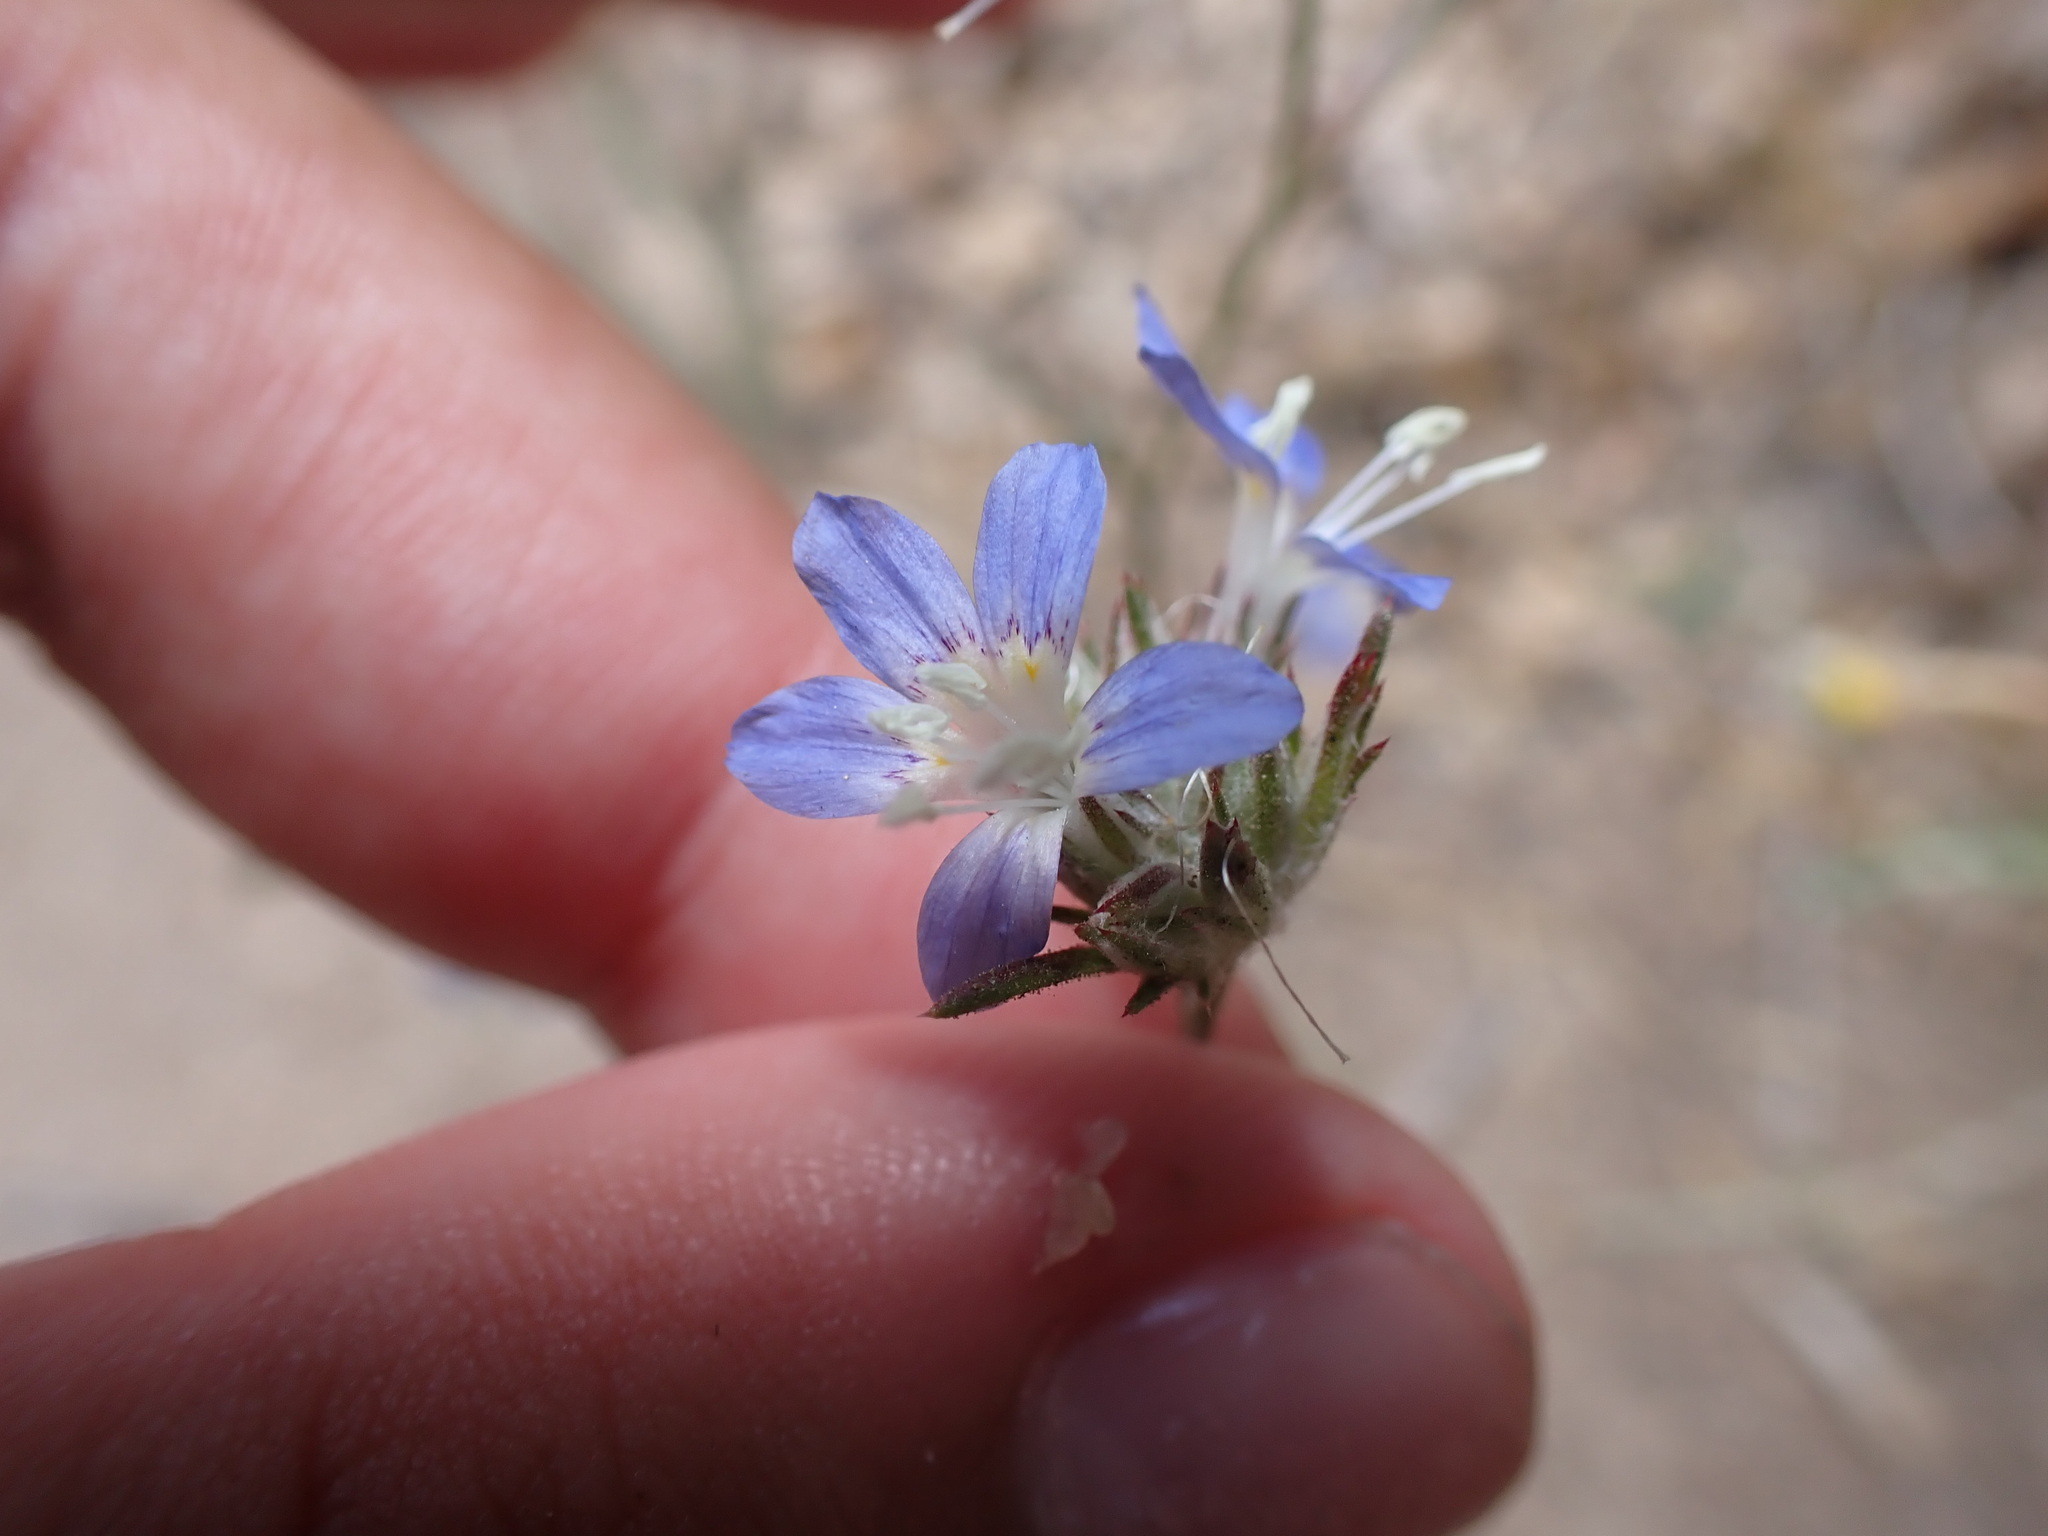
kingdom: Plantae
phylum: Tracheophyta
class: Magnoliopsida
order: Ericales
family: Polemoniaceae
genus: Eriastrum
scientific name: Eriastrum sapphirinum
